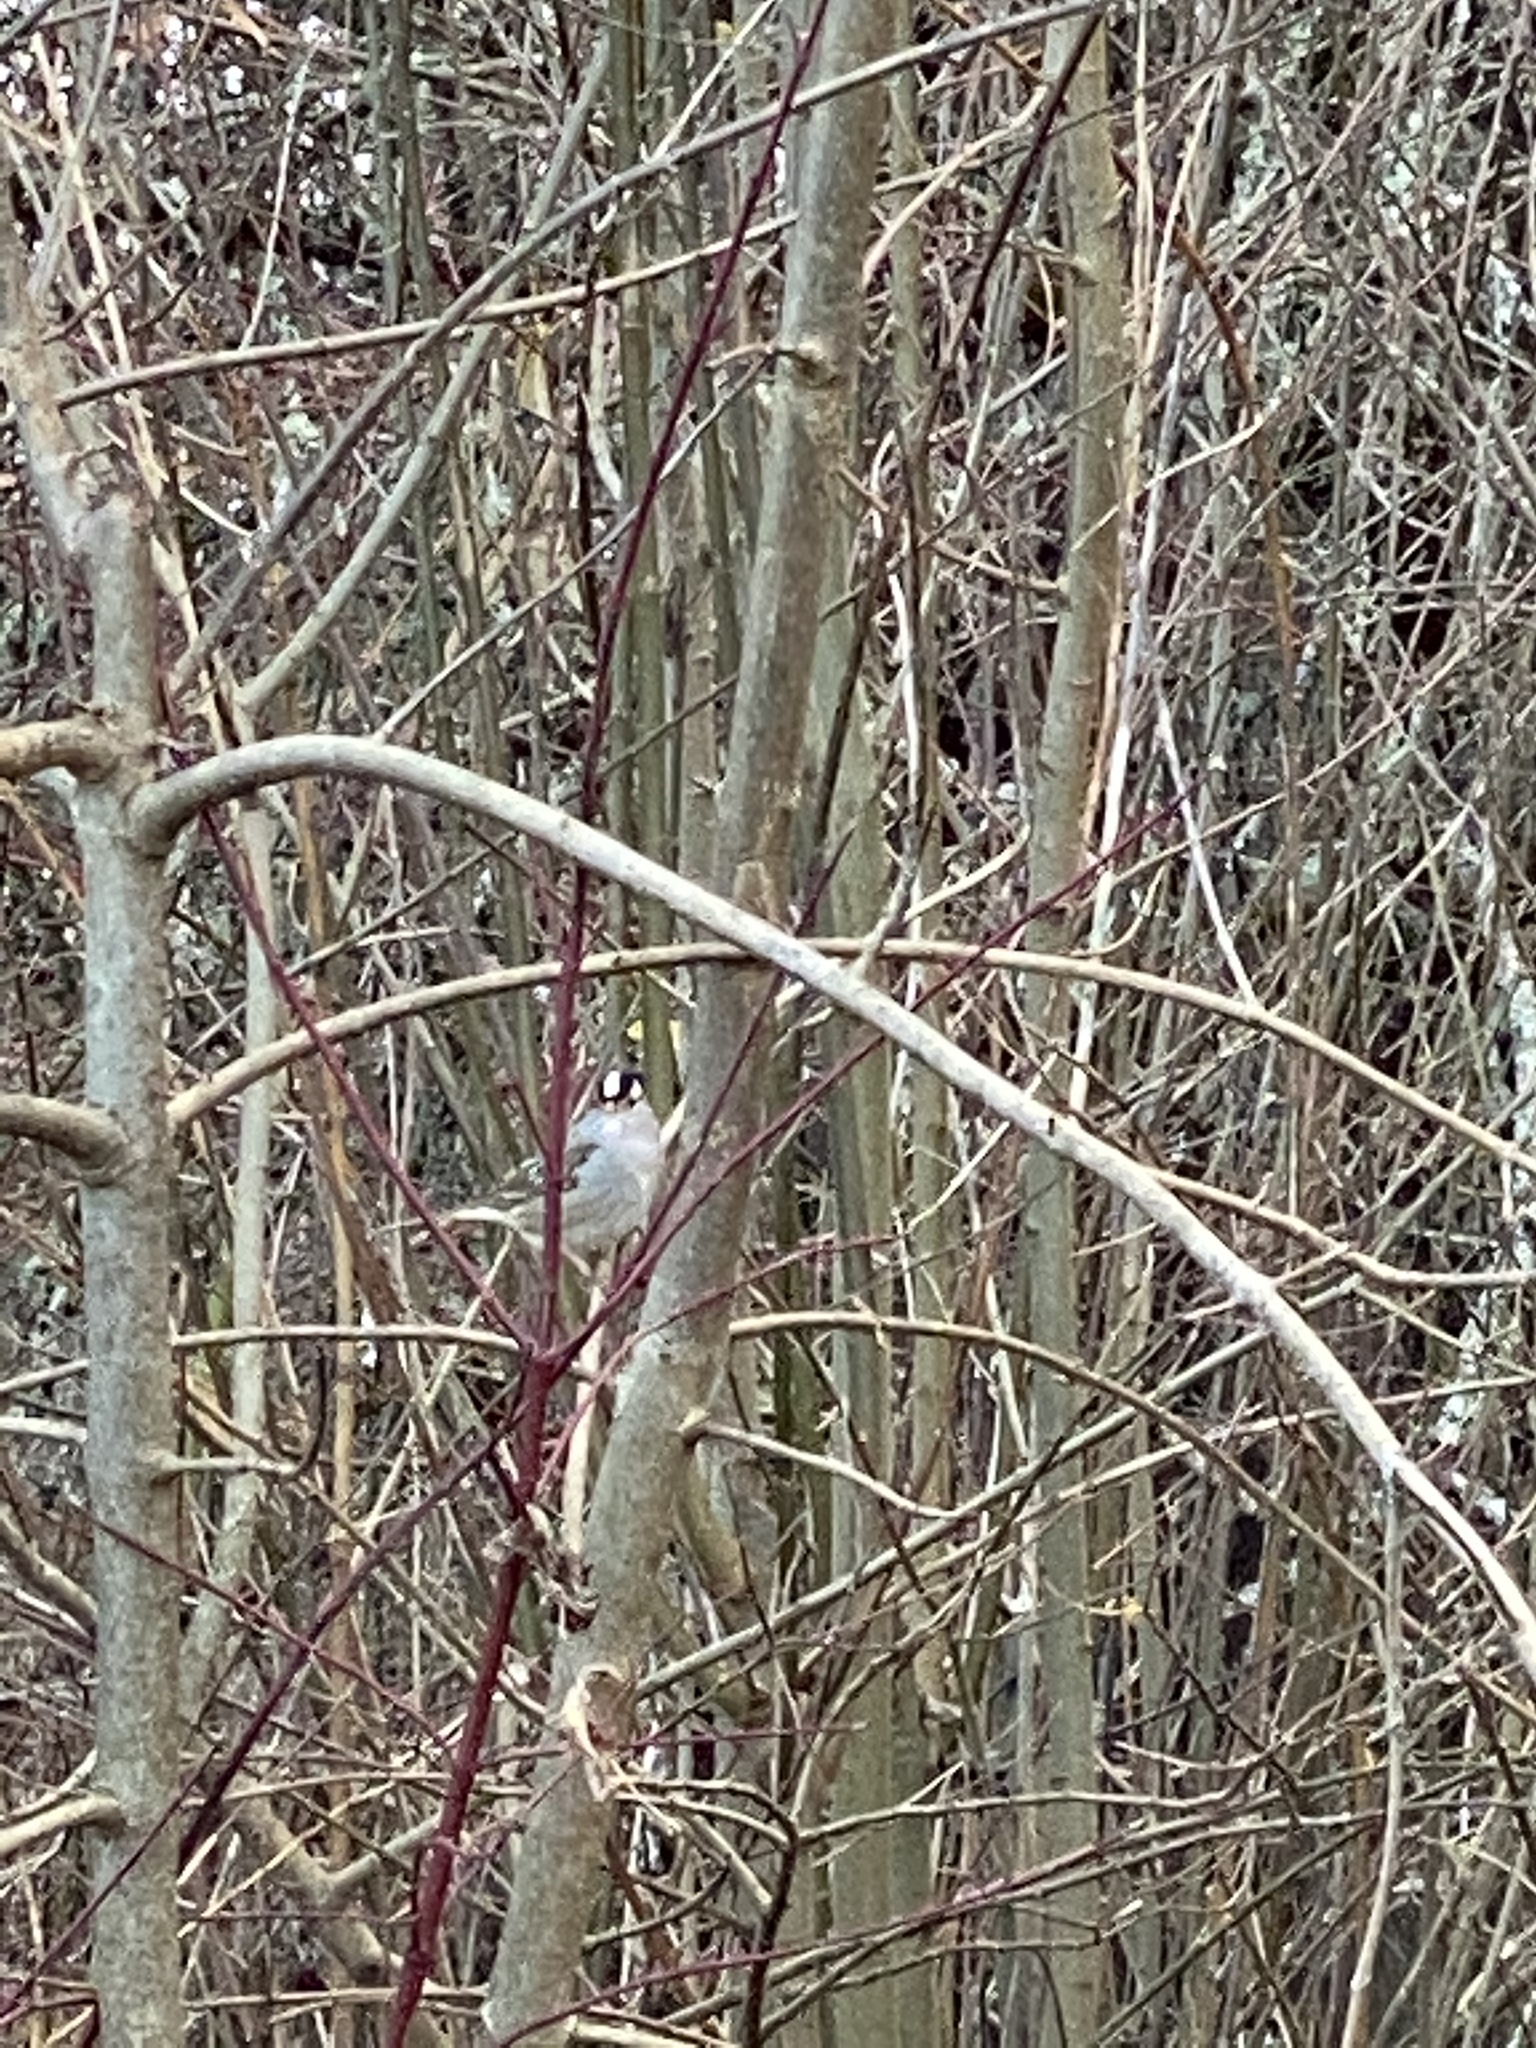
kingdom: Animalia
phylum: Chordata
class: Aves
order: Passeriformes
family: Passerellidae
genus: Zonotrichia
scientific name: Zonotrichia leucophrys
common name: White-crowned sparrow
